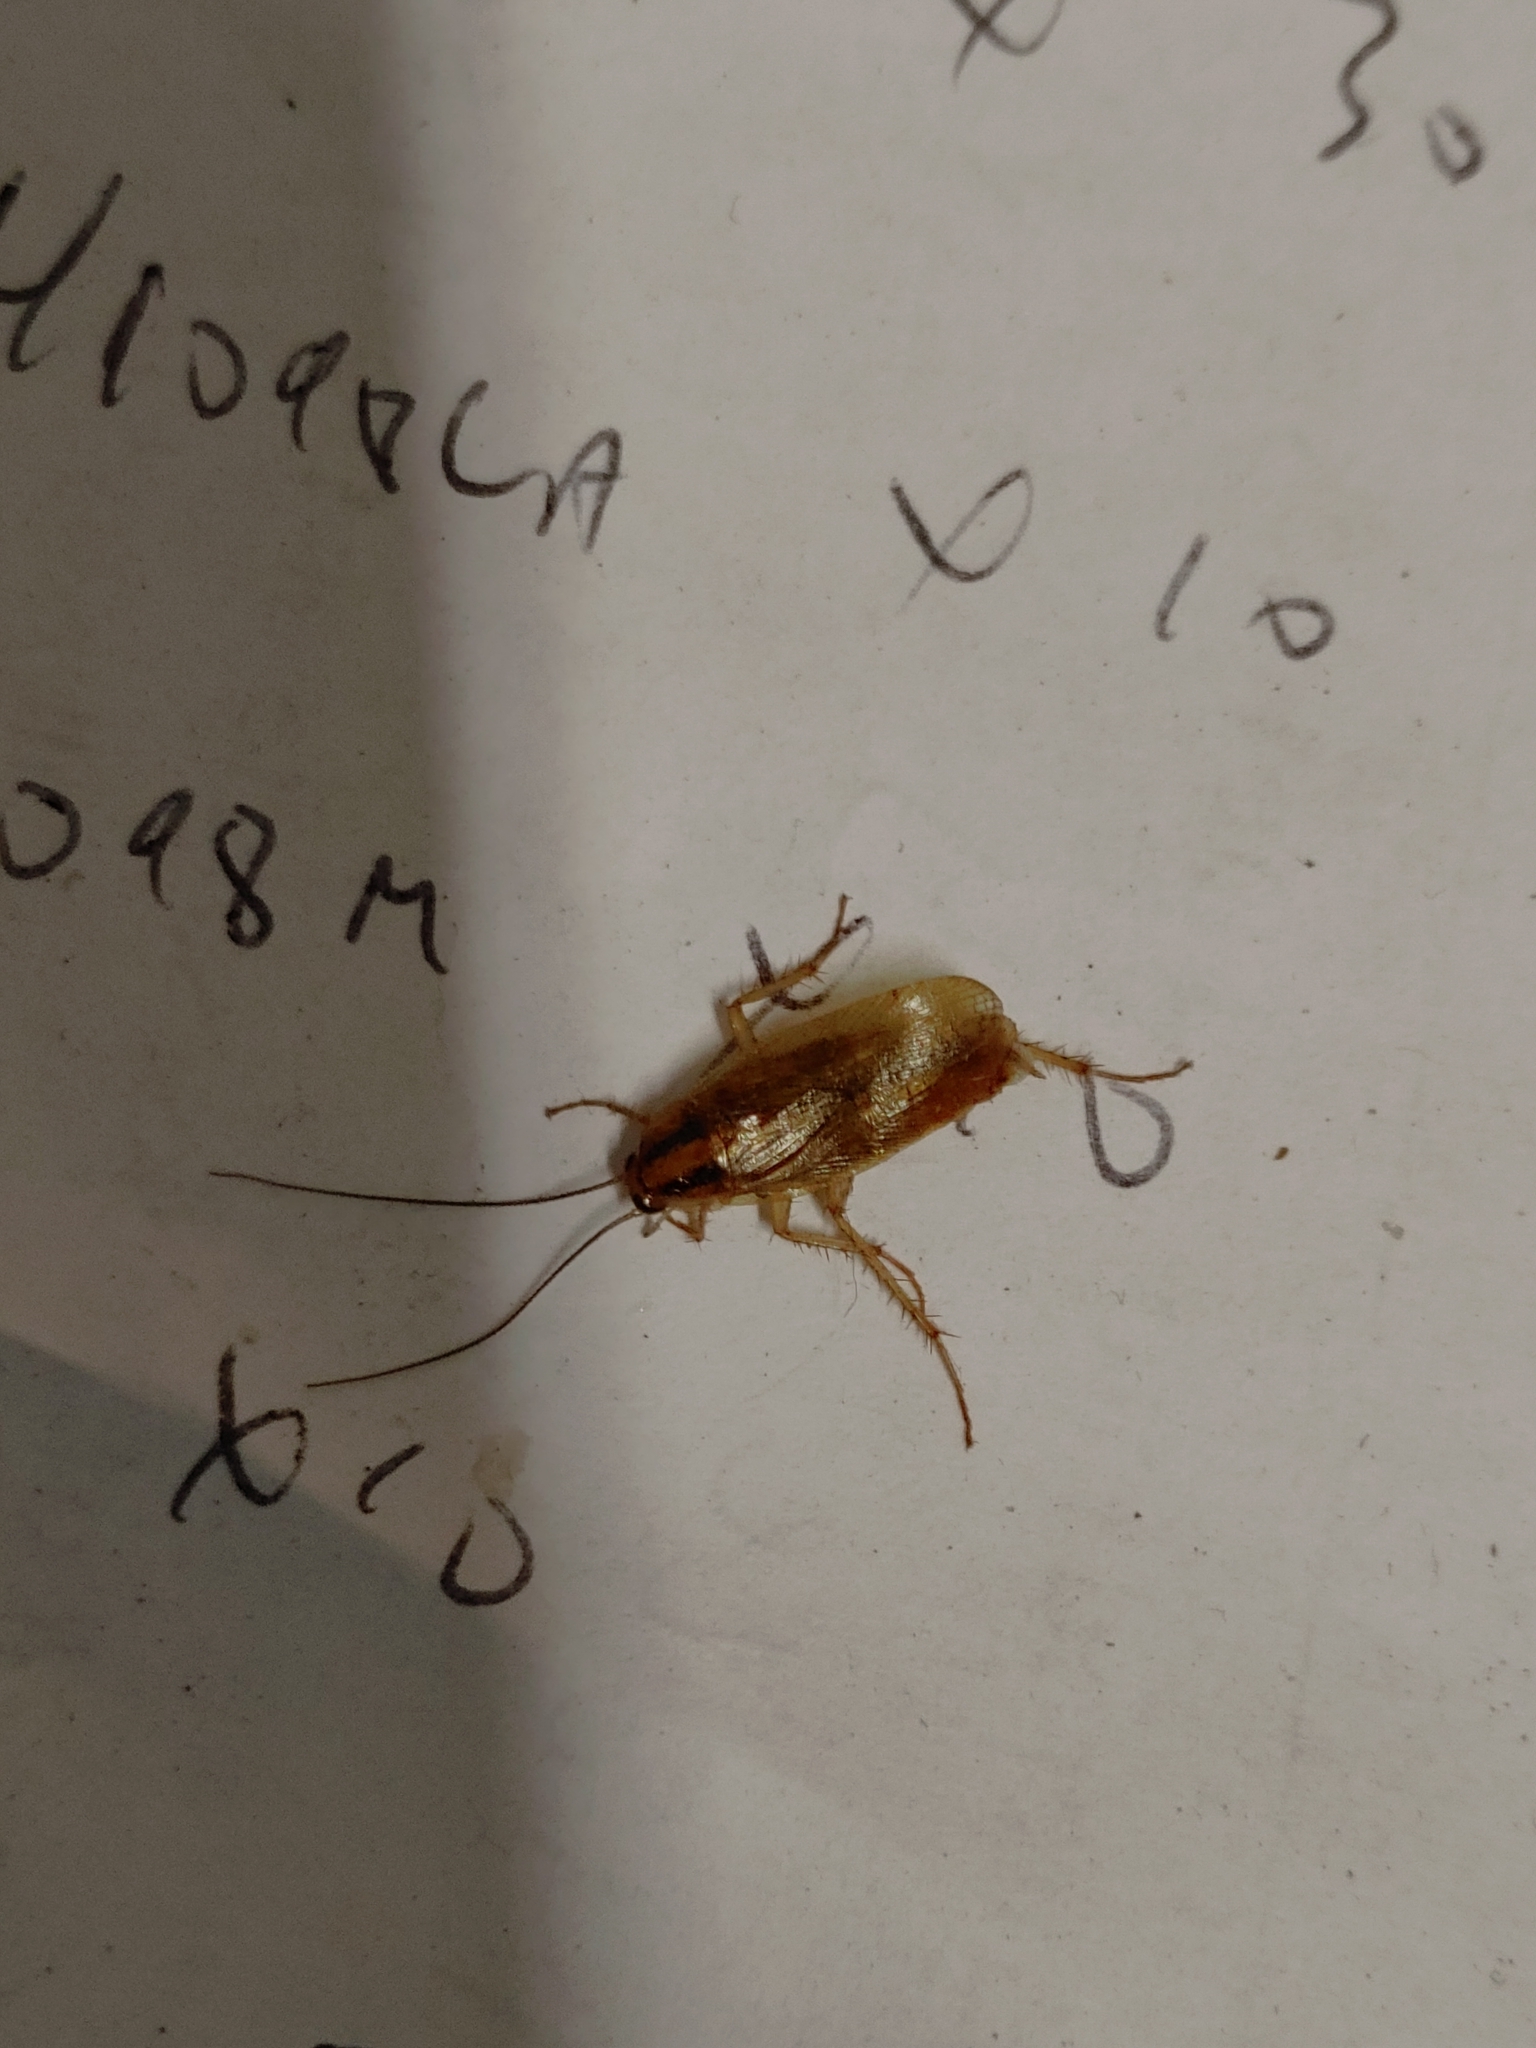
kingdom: Animalia
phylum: Arthropoda
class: Insecta
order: Blattodea
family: Ectobiidae
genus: Blattella
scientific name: Blattella germanica
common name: German cockroach
